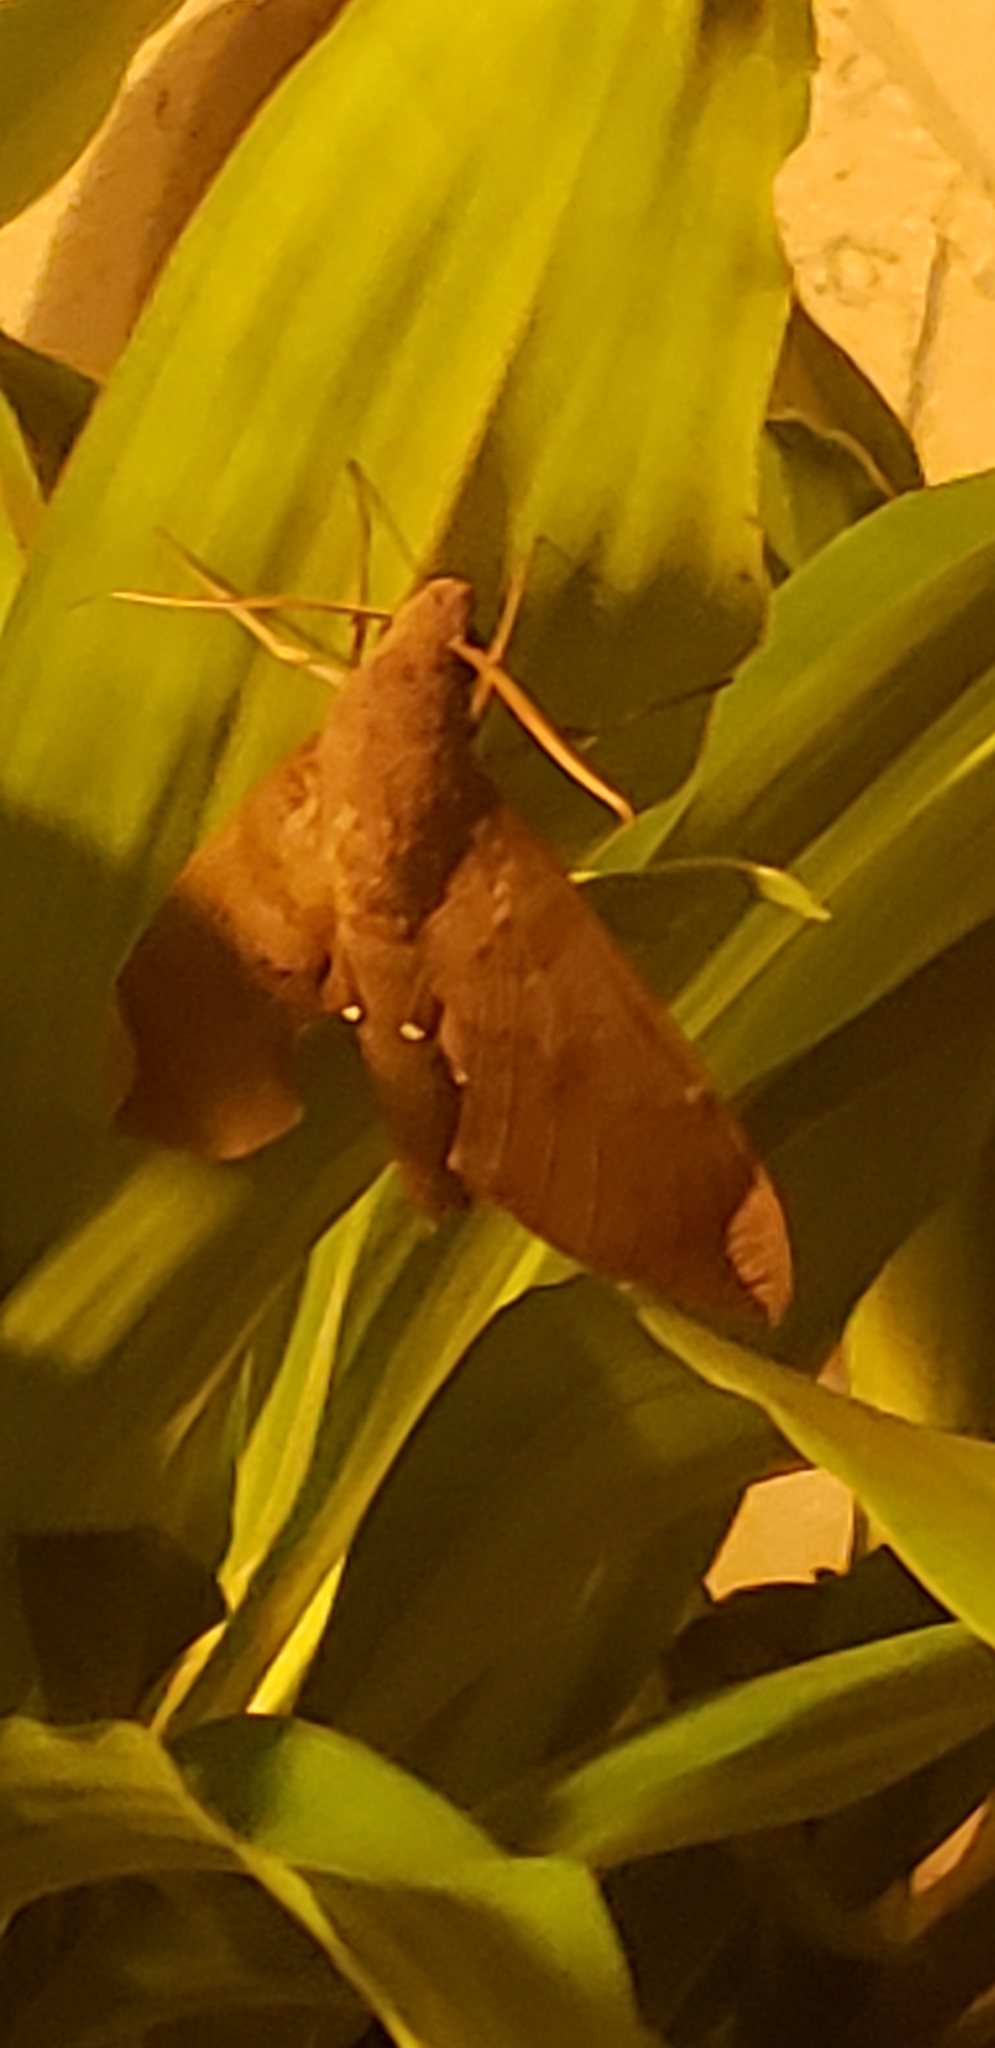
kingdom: Animalia
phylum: Arthropoda
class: Insecta
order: Lepidoptera
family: Sphingidae
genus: Pachylia
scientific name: Pachylia ficus
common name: Fig sphinx
